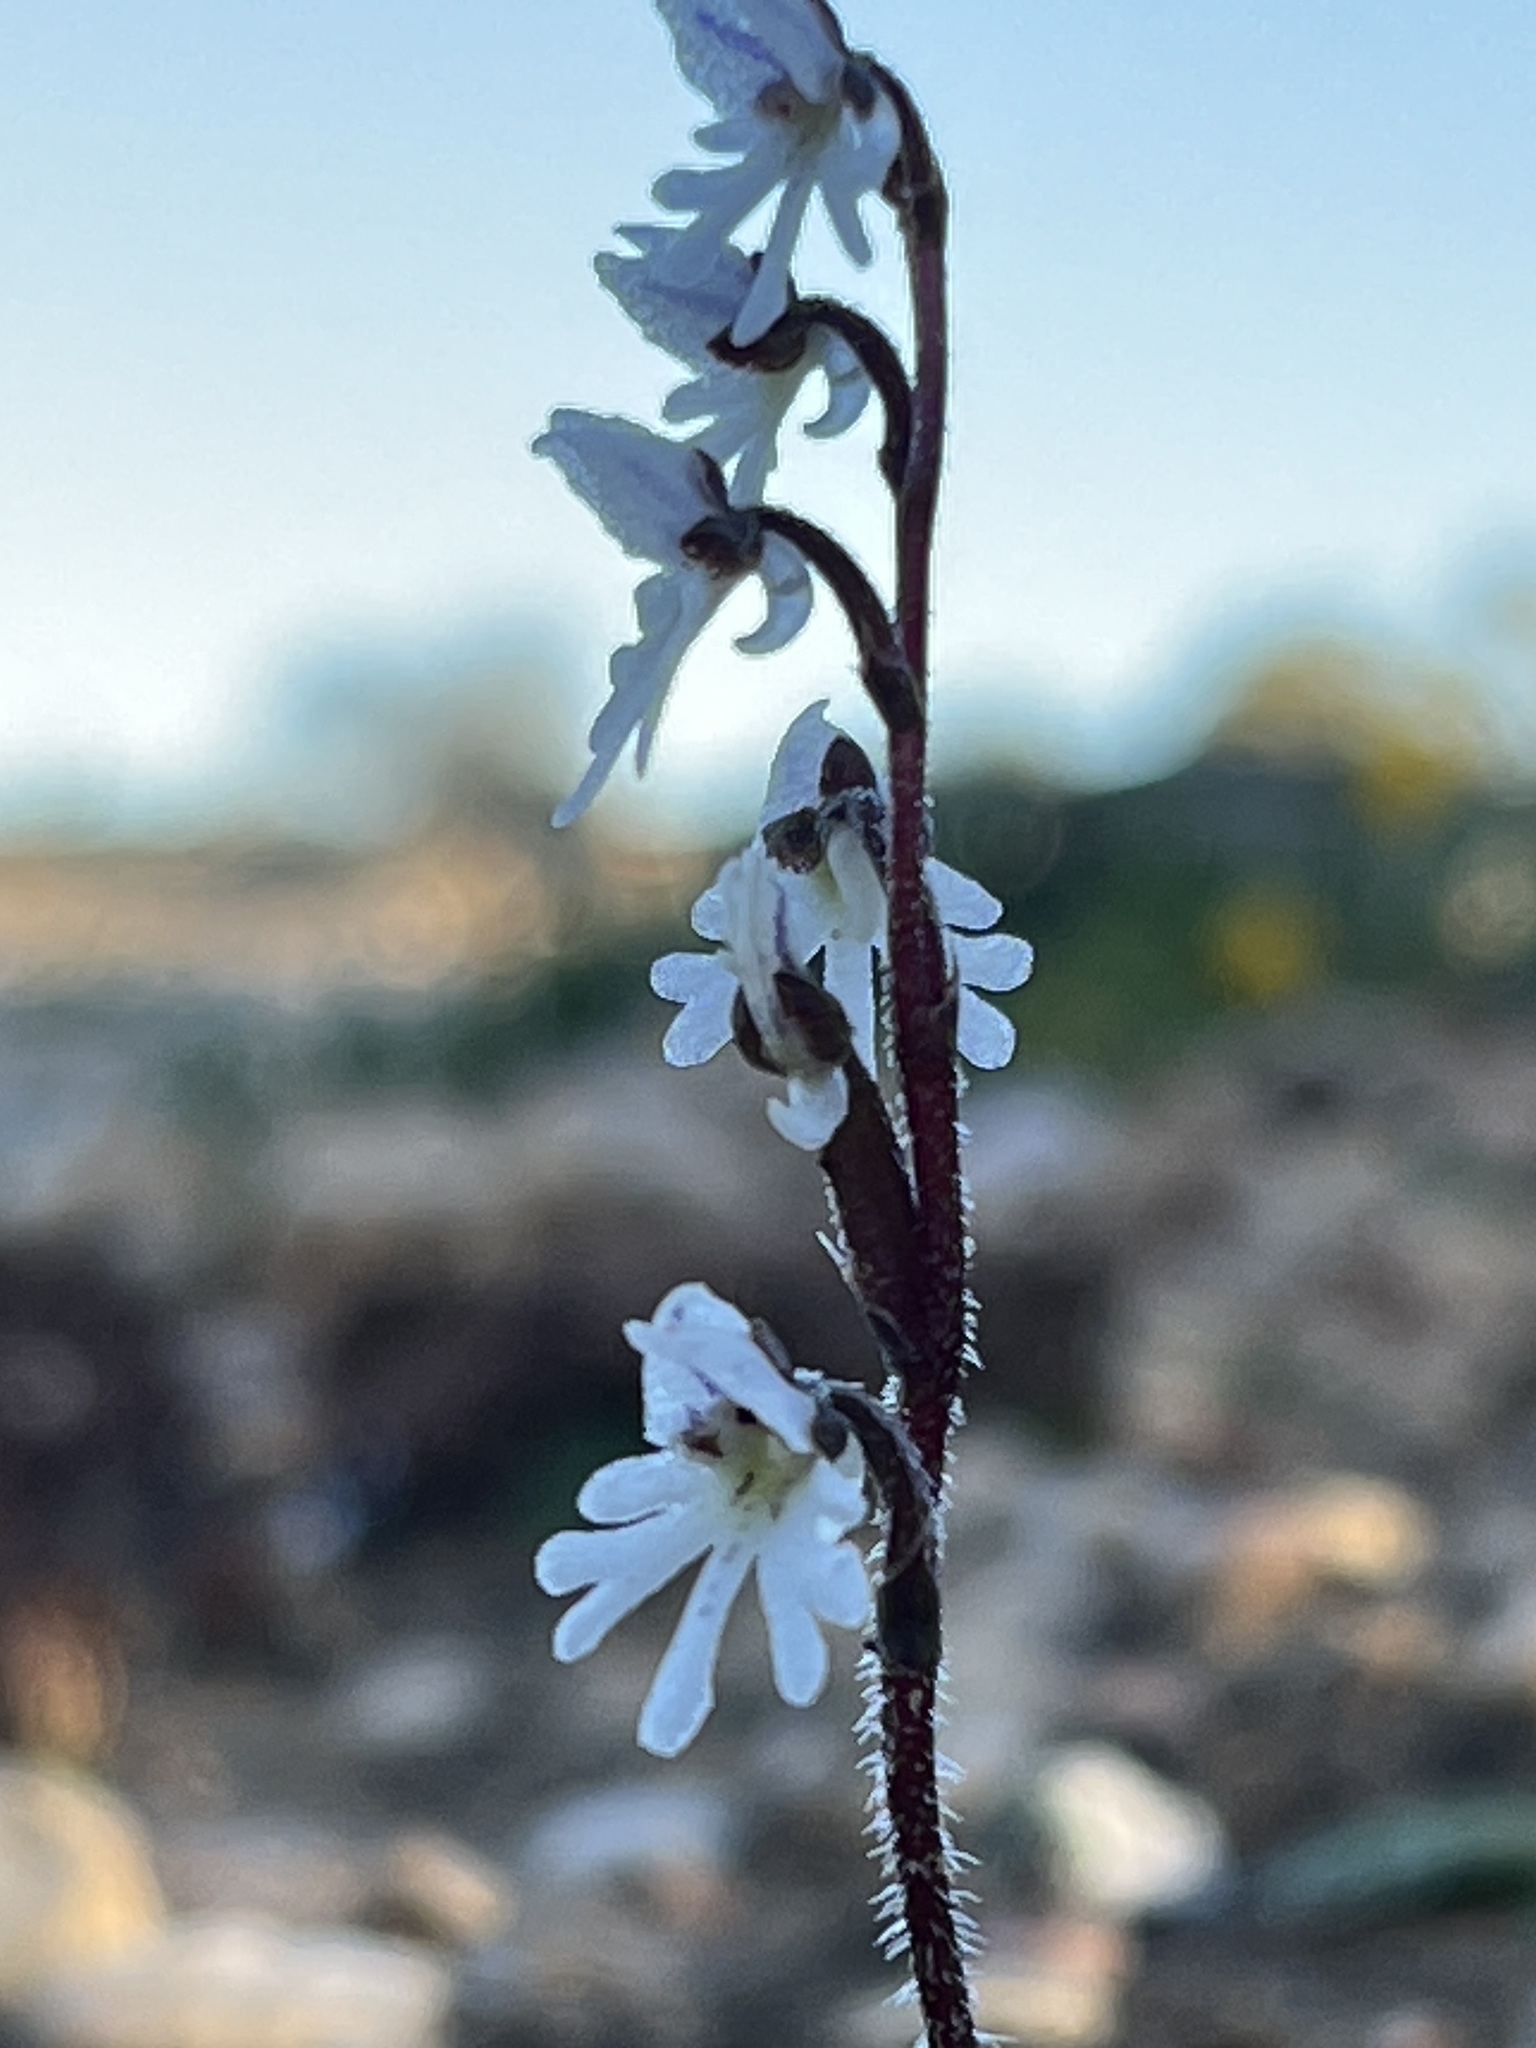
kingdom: Plantae
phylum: Tracheophyta
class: Liliopsida
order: Asparagales
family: Orchidaceae
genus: Holothrix
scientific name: Holothrix aspera
